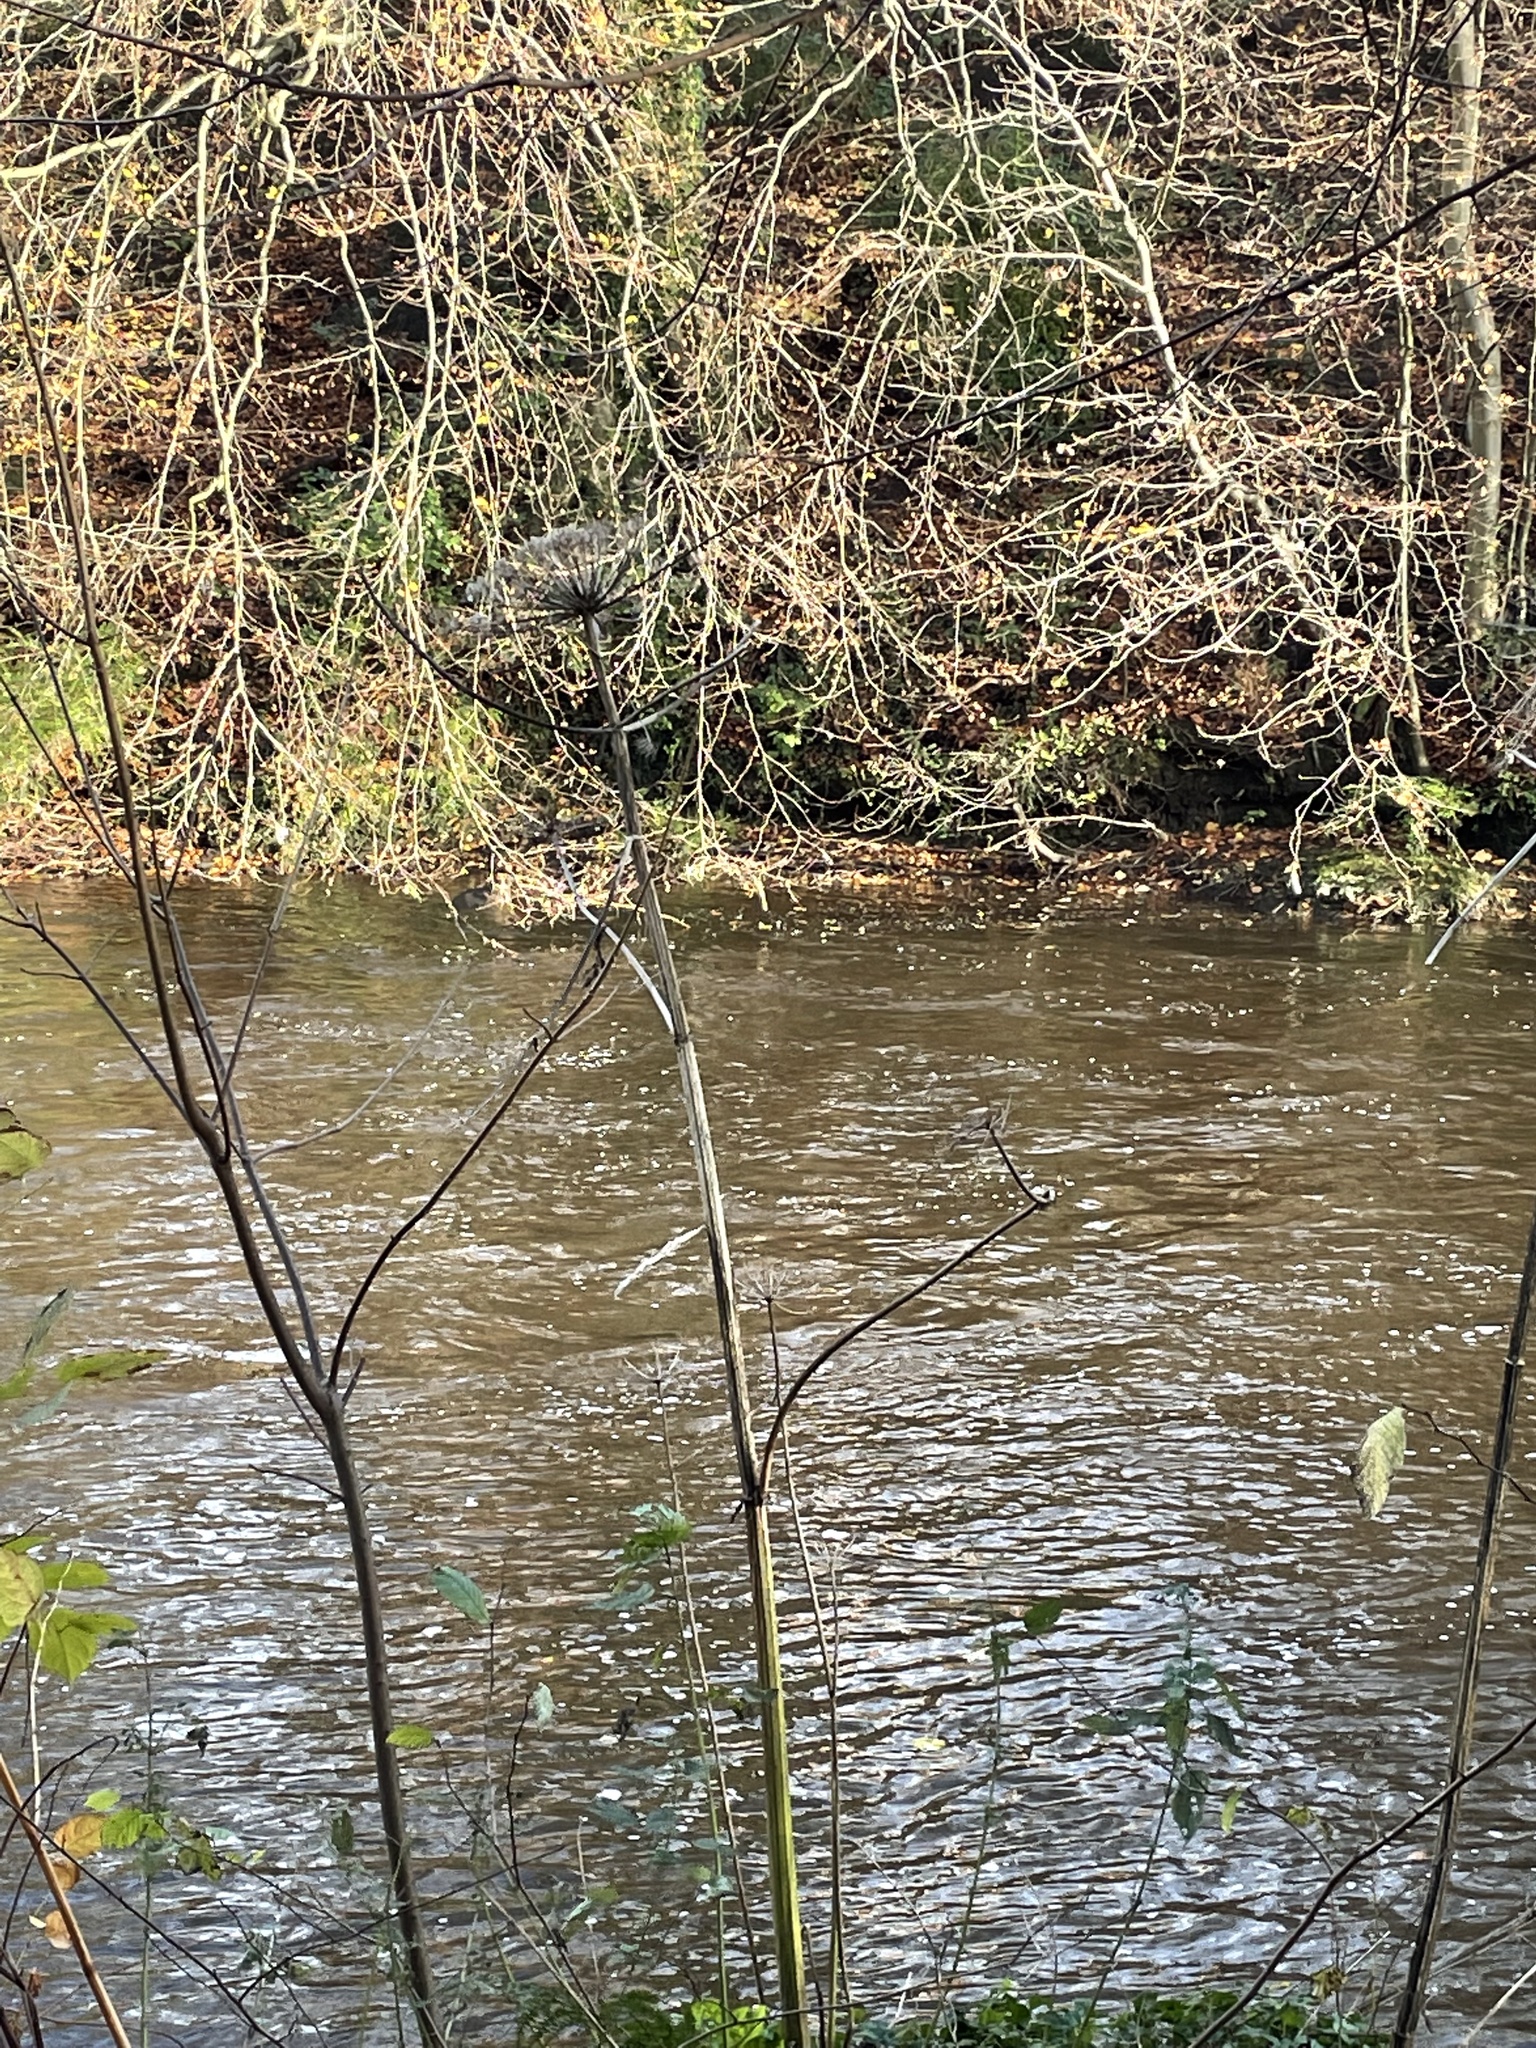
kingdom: Plantae
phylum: Tracheophyta
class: Magnoliopsida
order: Apiales
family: Apiaceae
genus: Heracleum
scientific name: Heracleum mantegazzianum
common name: Giant hogweed
